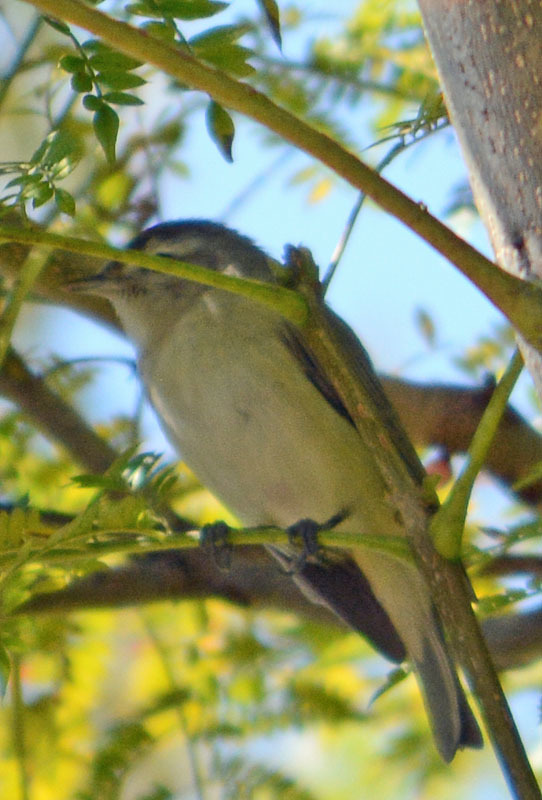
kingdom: Animalia
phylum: Chordata
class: Aves
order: Passeriformes
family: Vireonidae
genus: Vireo
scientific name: Vireo gilvus
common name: Warbling vireo
